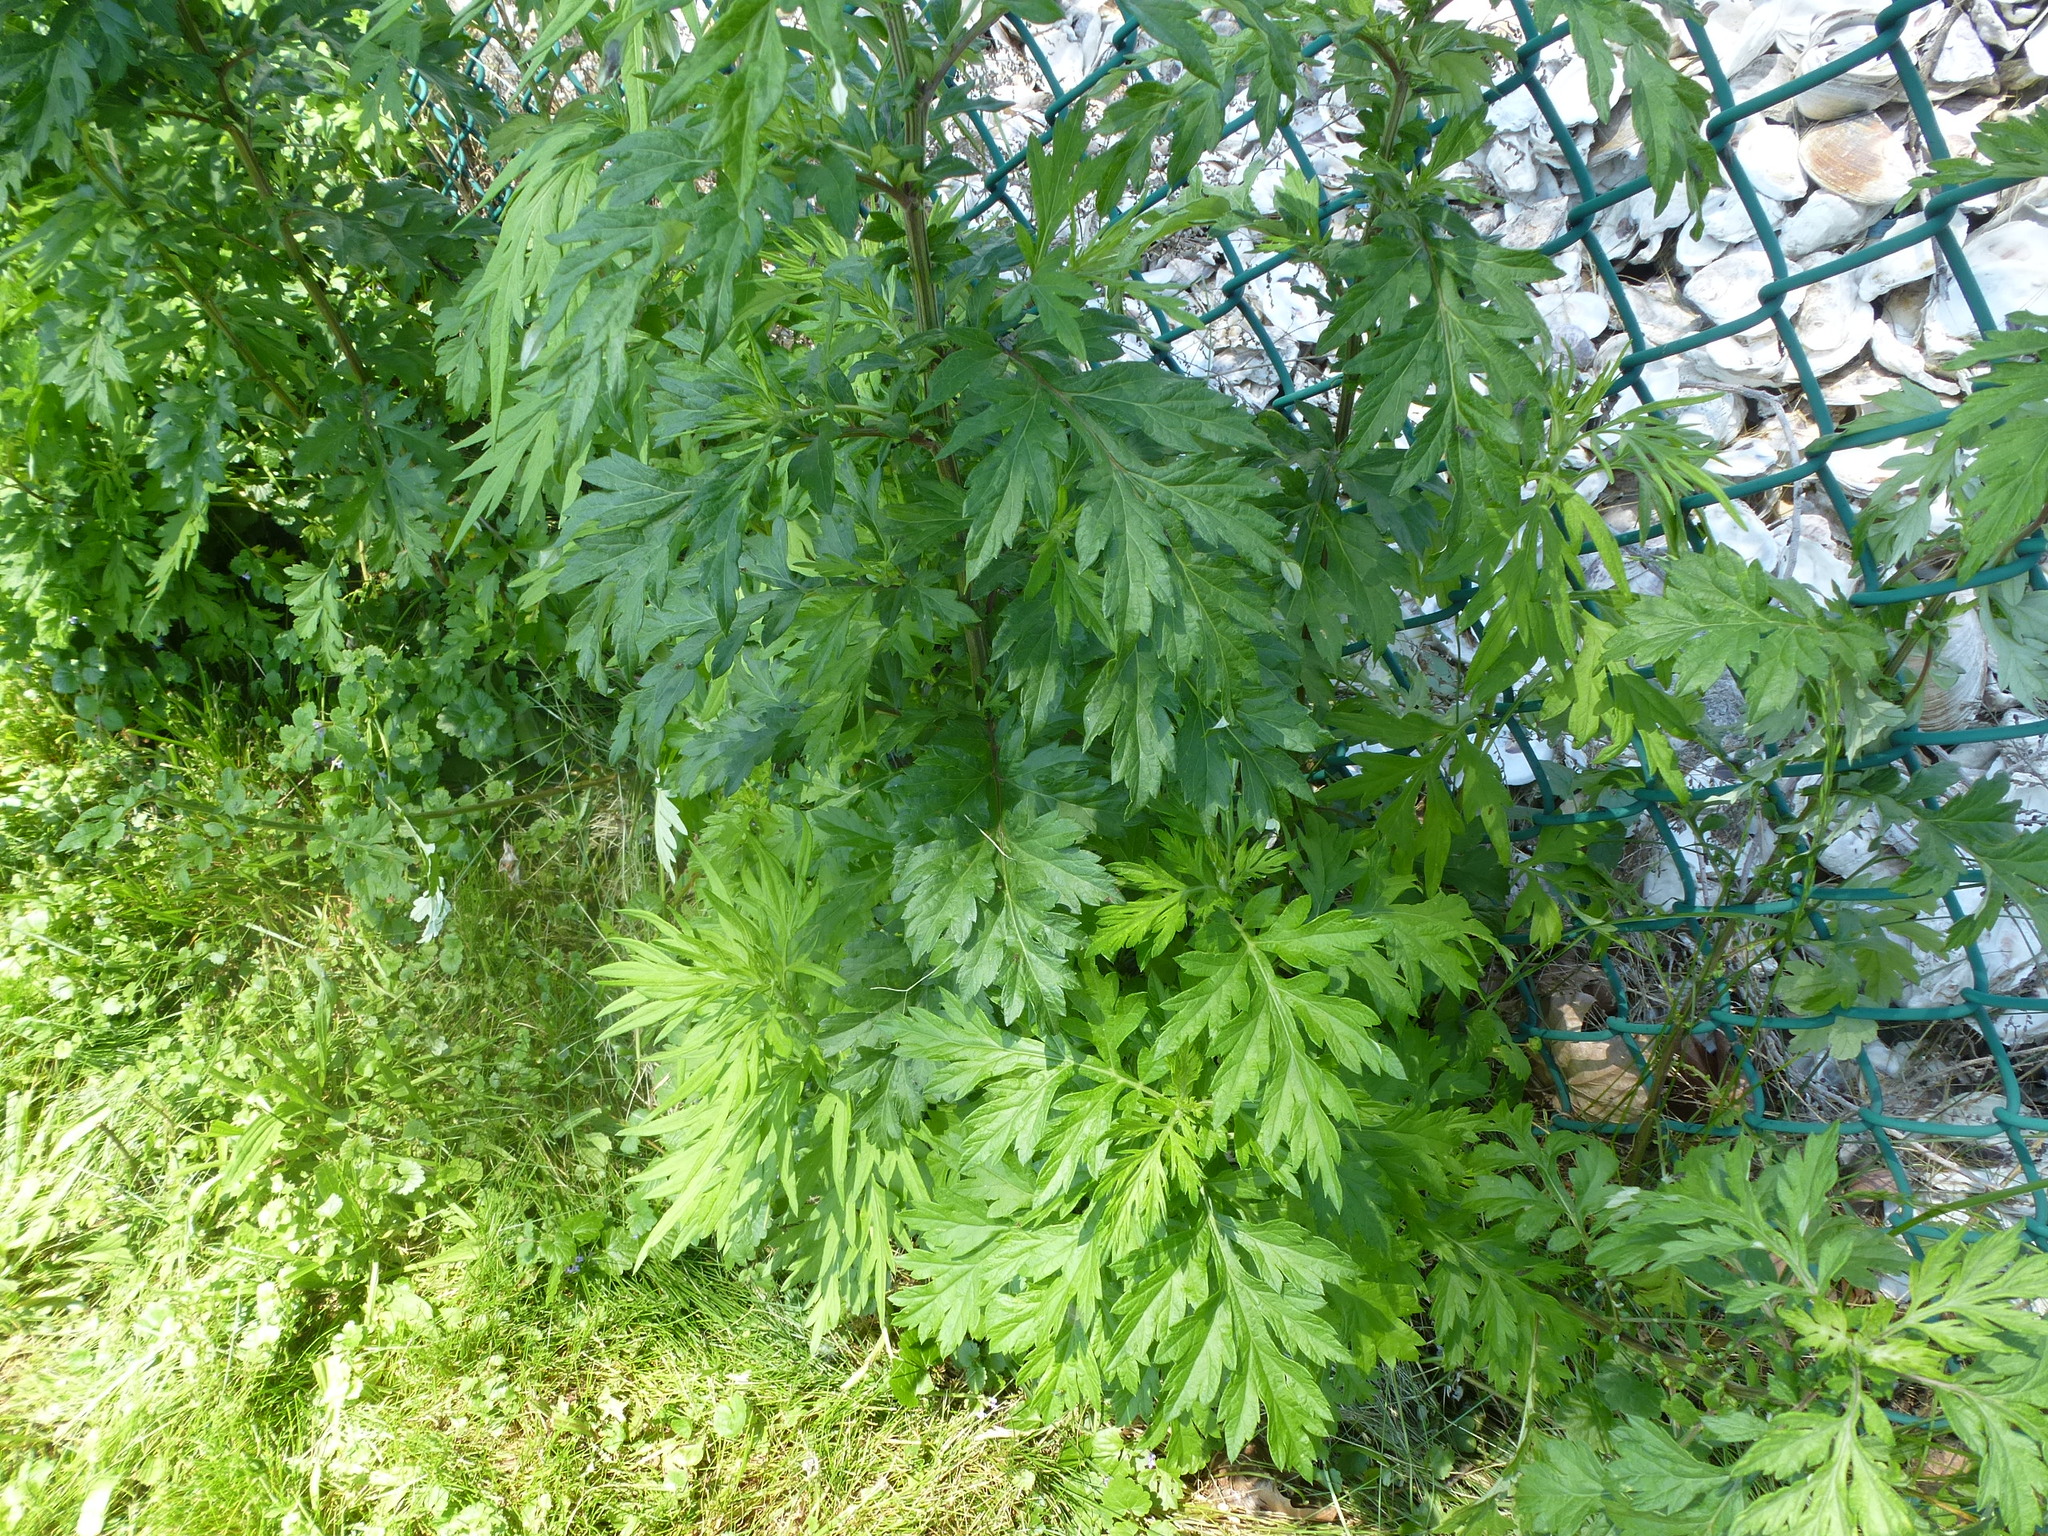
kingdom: Plantae
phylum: Tracheophyta
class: Magnoliopsida
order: Asterales
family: Asteraceae
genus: Artemisia
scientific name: Artemisia vulgaris
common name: Mugwort
